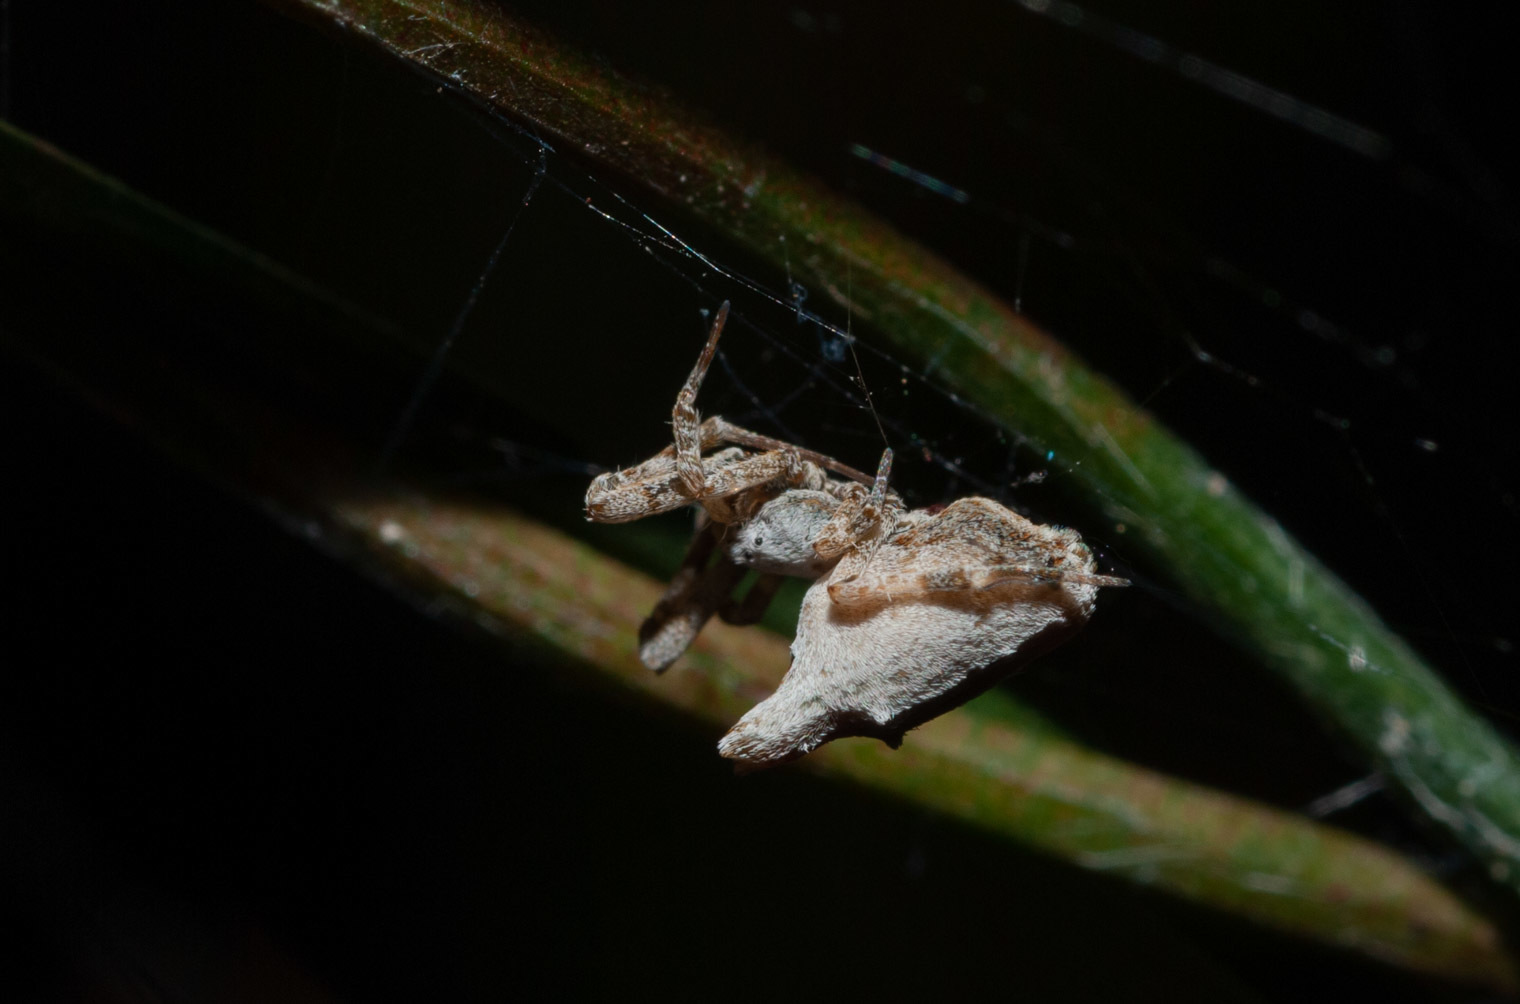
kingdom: Animalia
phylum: Arthropoda
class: Arachnida
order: Araneae
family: Uloboridae
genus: Philoponella
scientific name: Philoponella congregabilis
